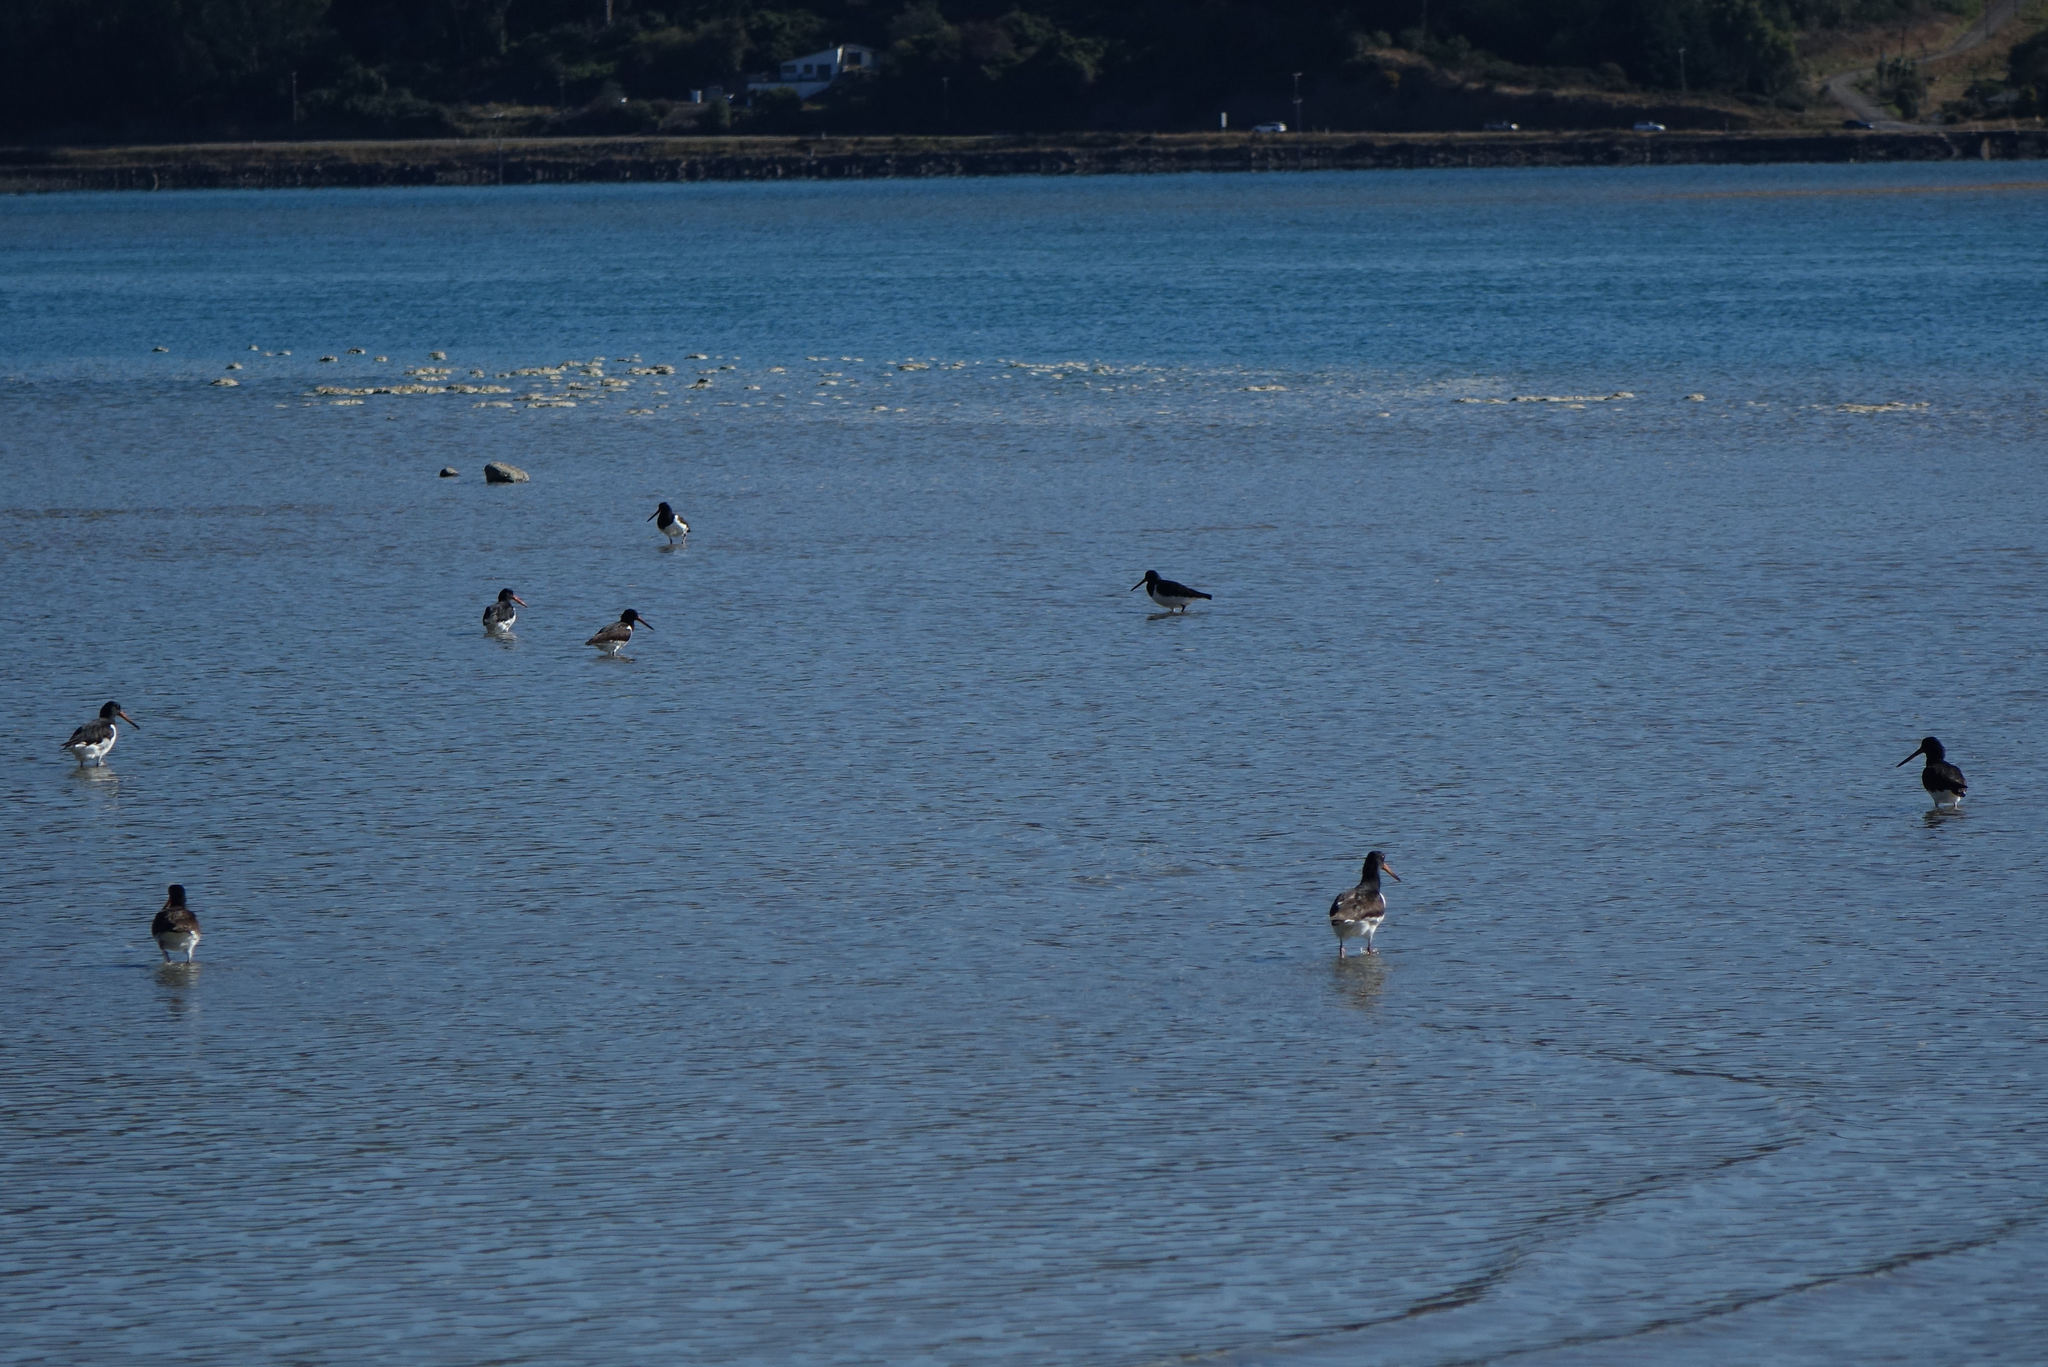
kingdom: Animalia
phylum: Chordata
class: Aves
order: Charadriiformes
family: Haematopodidae
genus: Haematopus
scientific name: Haematopus finschi
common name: South island oystercatcher
